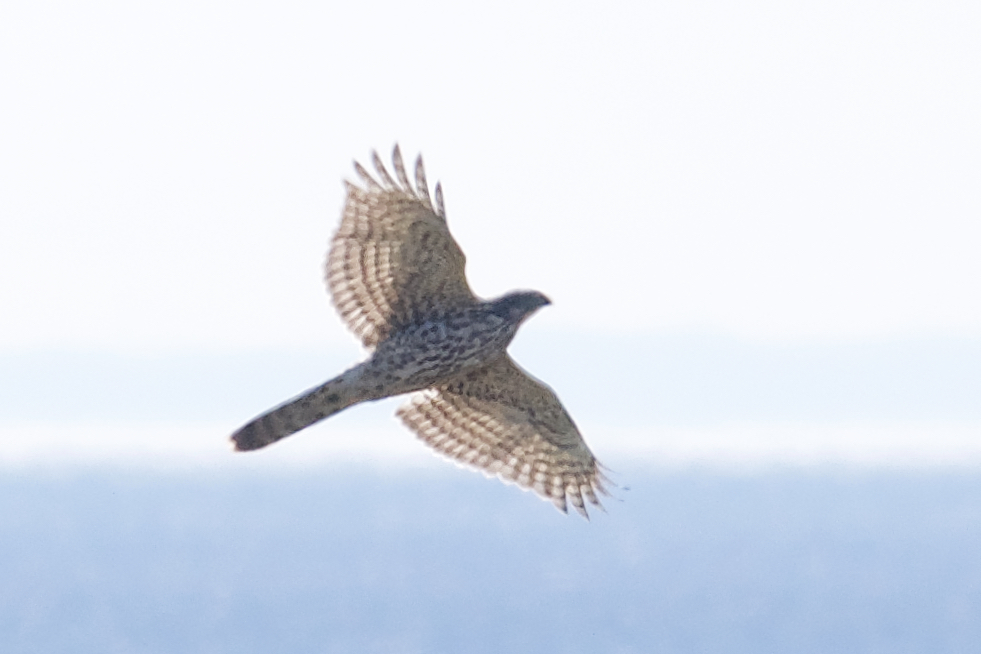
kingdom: Animalia
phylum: Chordata
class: Aves
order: Accipitriformes
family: Accipitridae
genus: Accipiter
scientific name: Accipiter gentilis
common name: Northern goshawk
